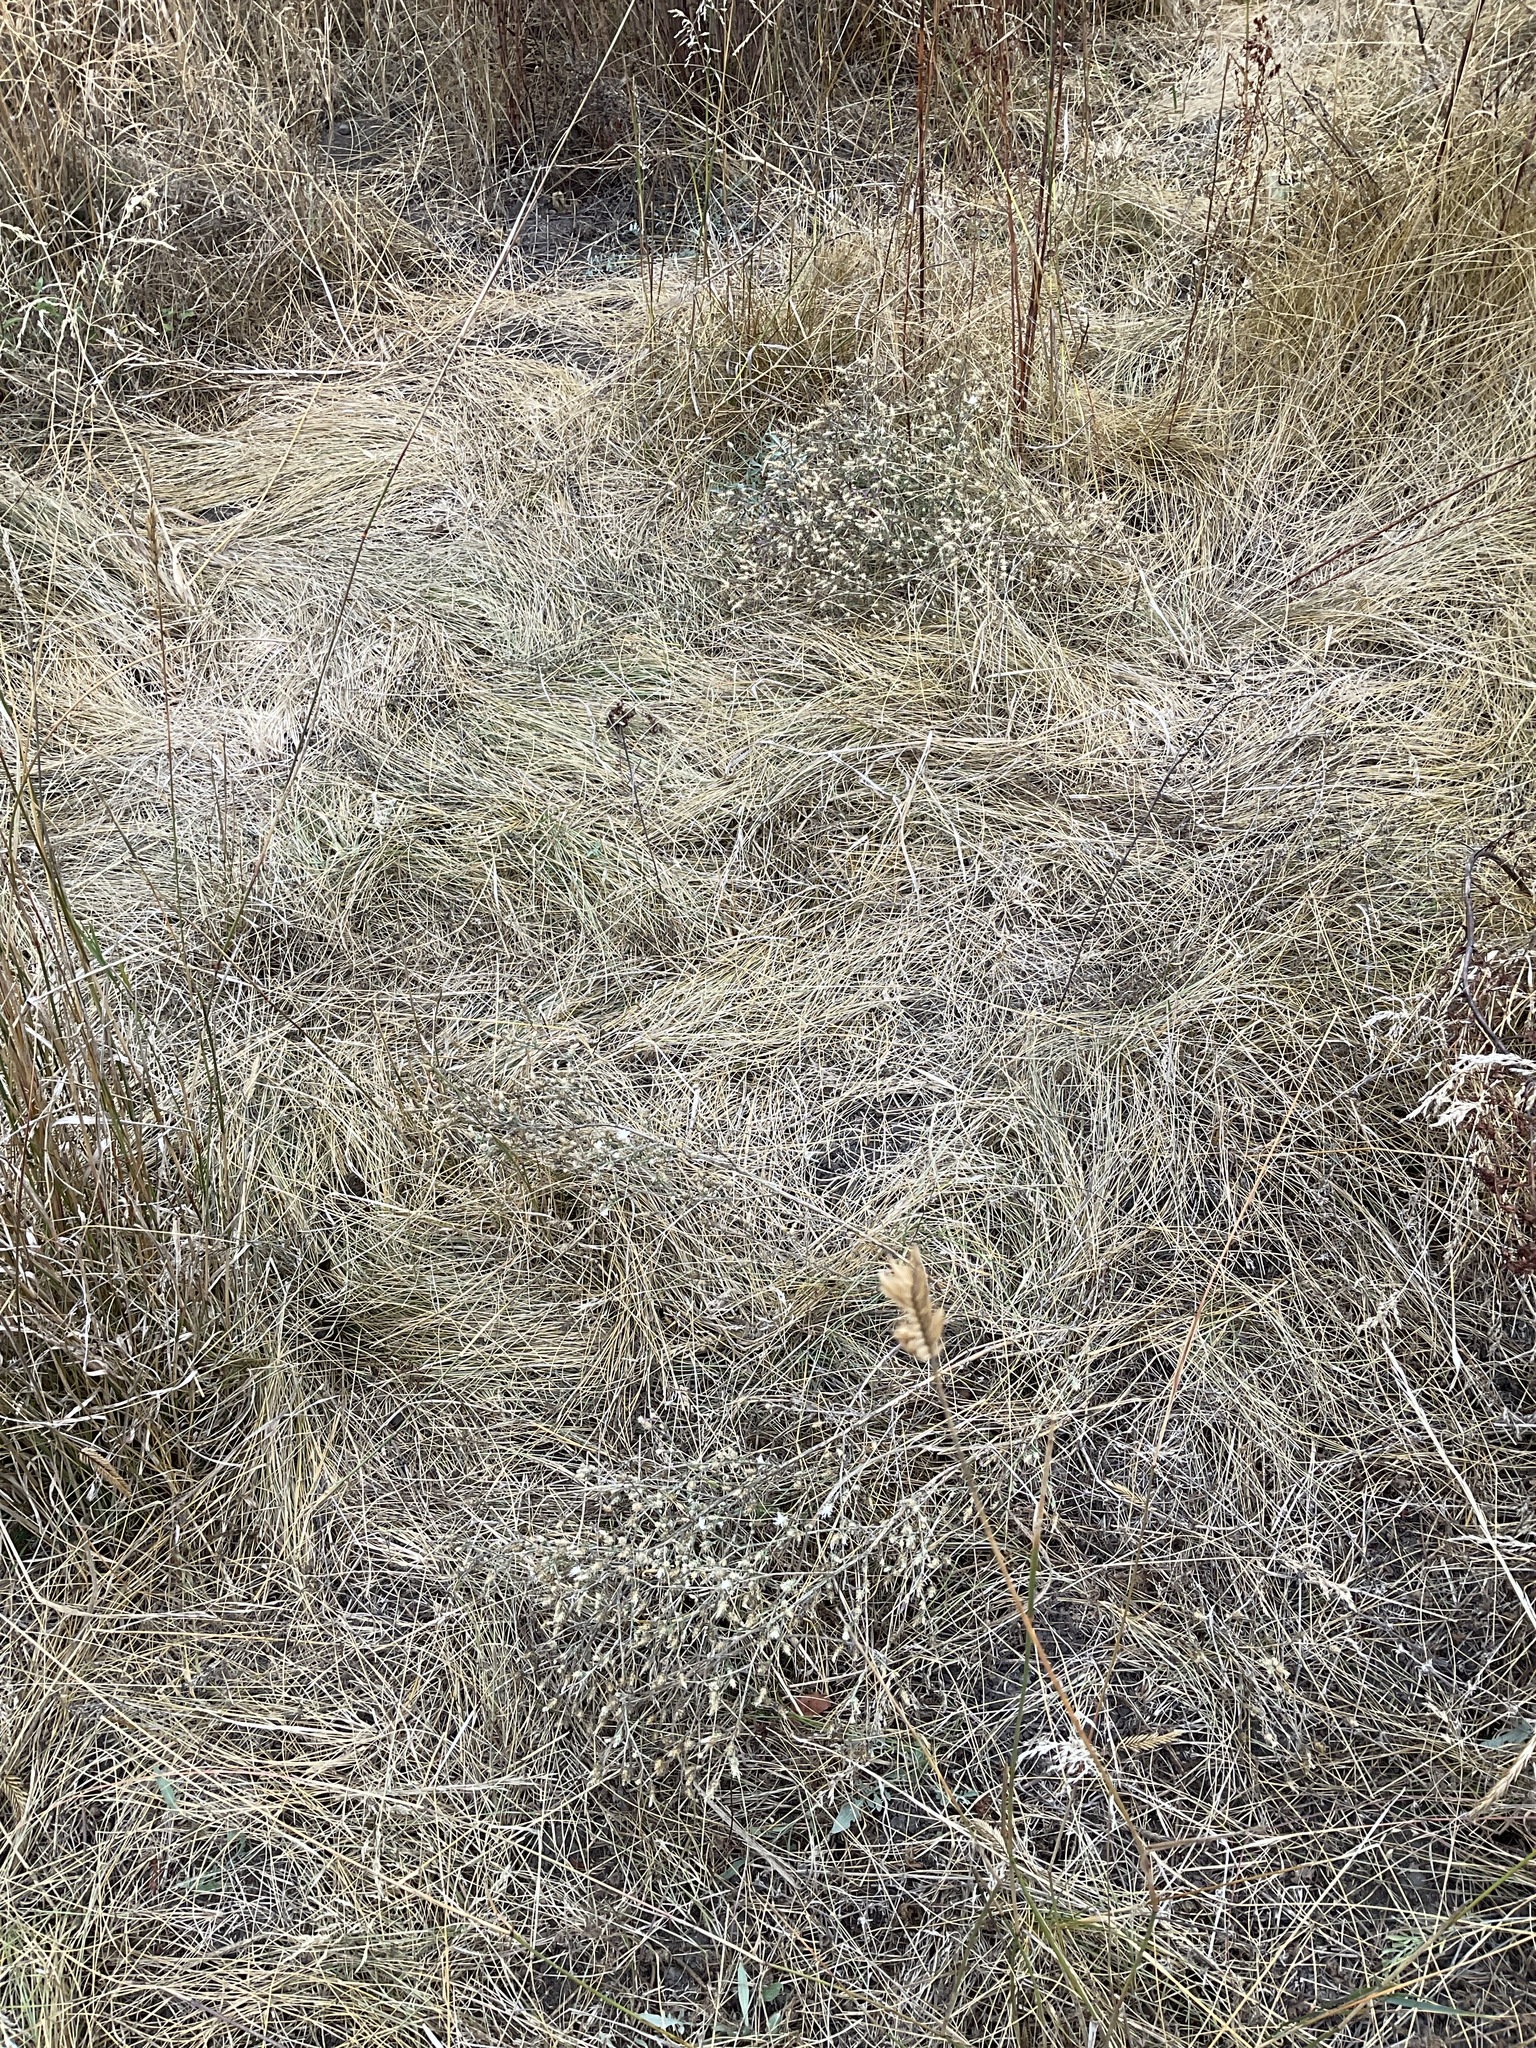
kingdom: Plantae
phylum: Tracheophyta
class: Magnoliopsida
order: Asterales
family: Asteraceae
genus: Centaurea
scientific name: Centaurea diffusa
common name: Diffuse knapweed
